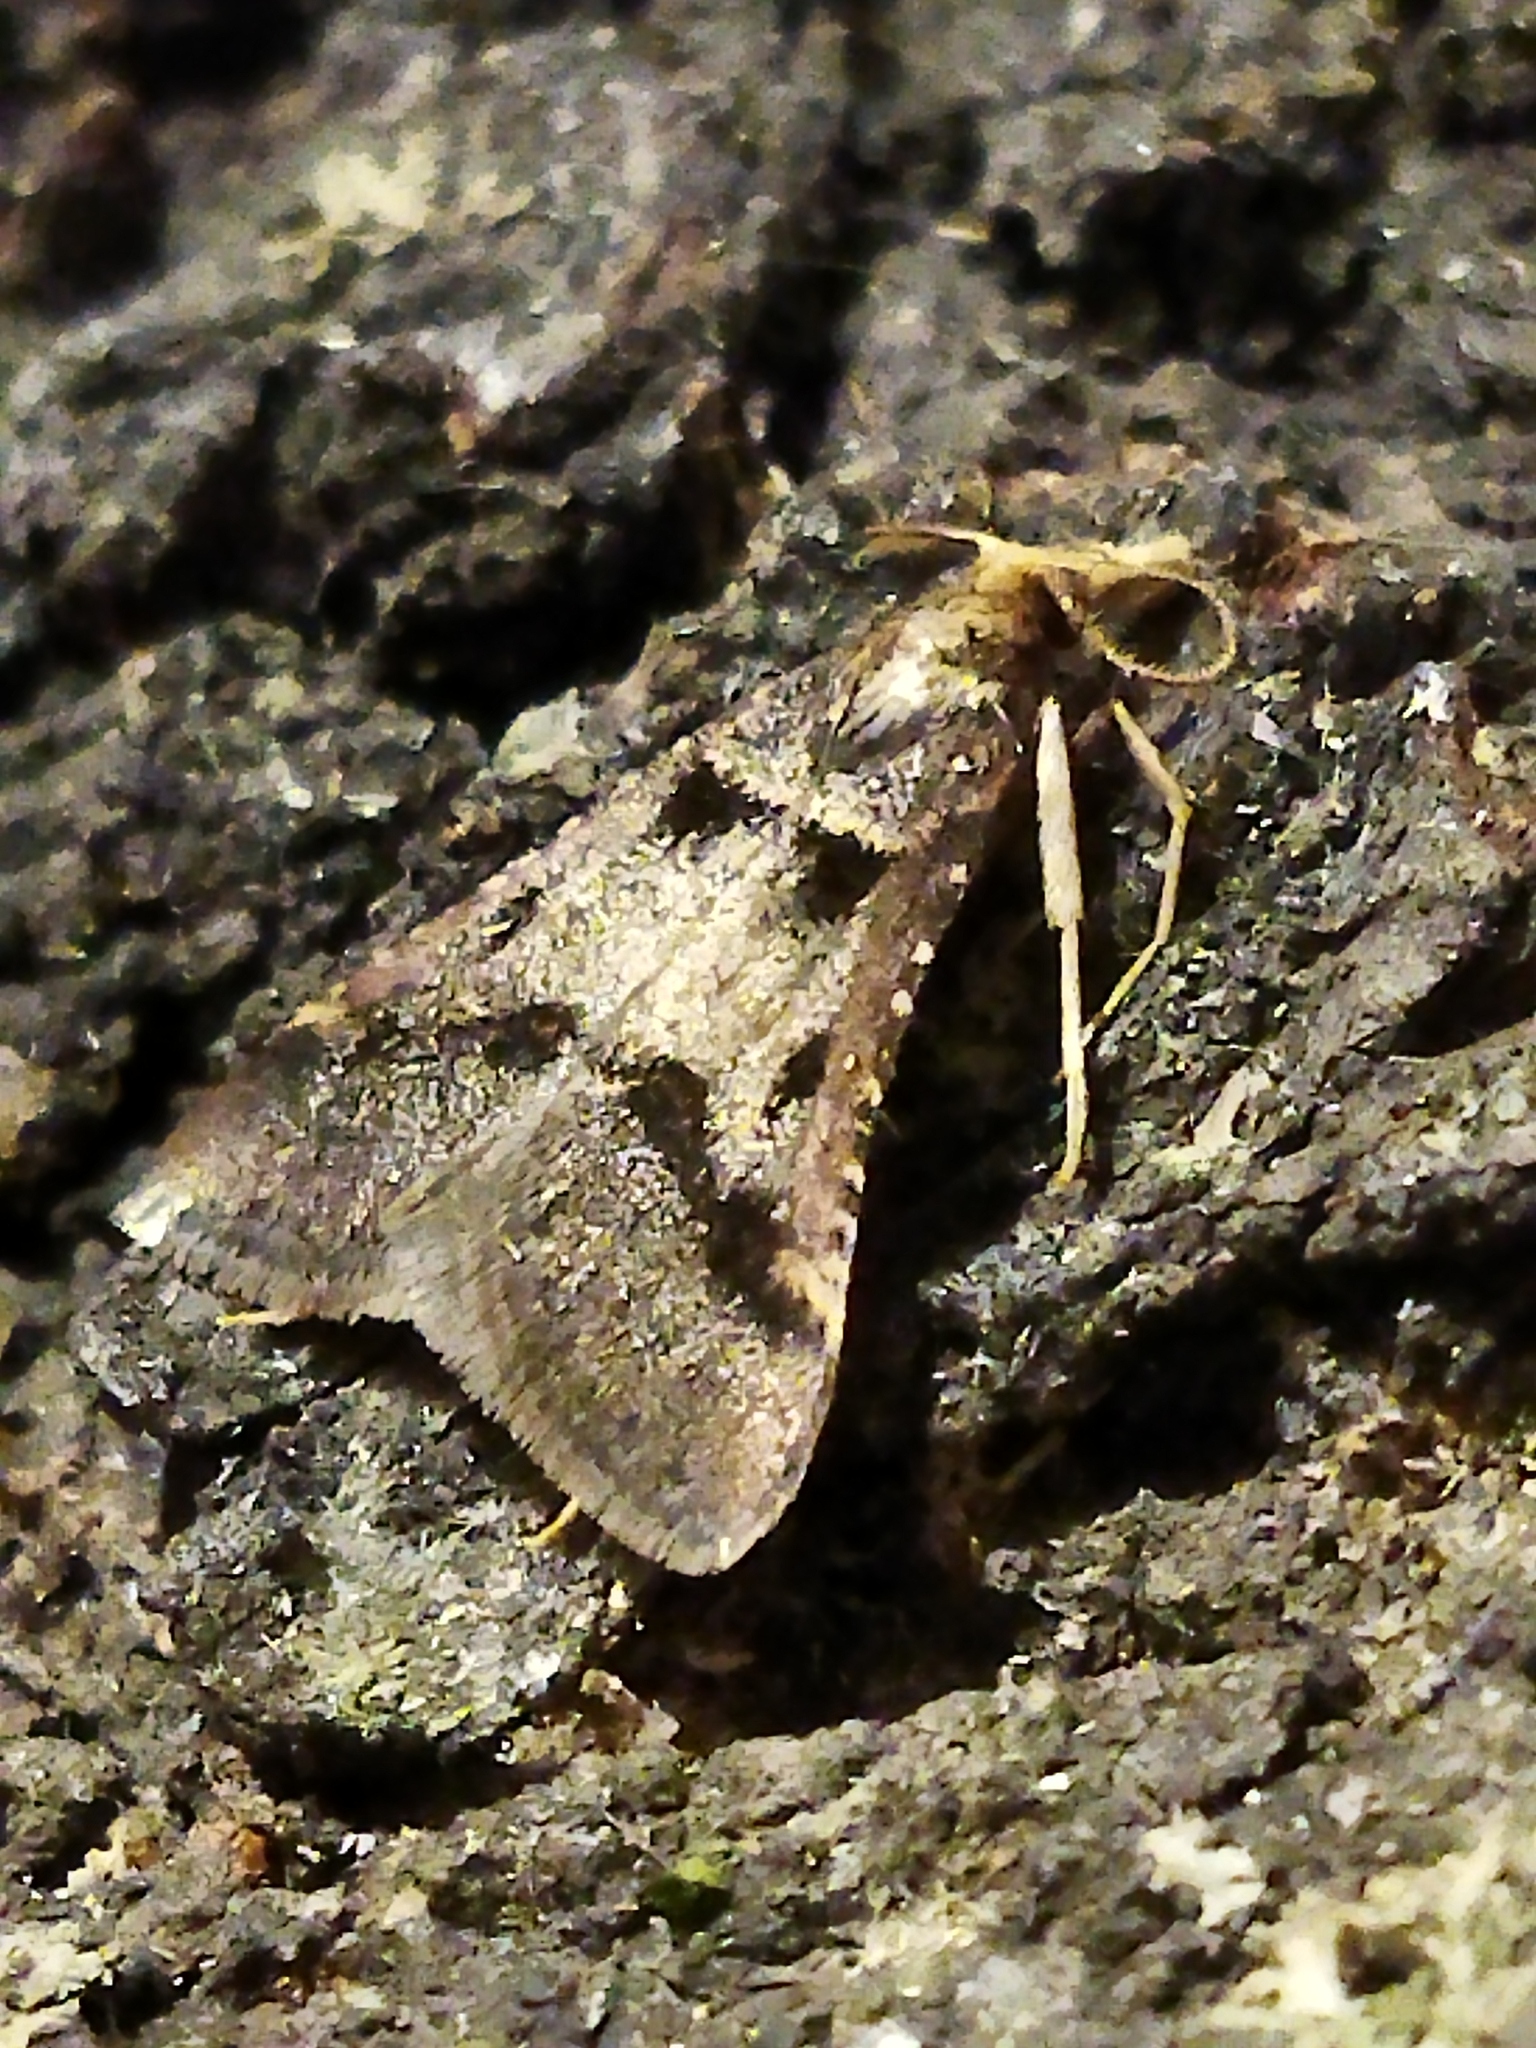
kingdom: Animalia
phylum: Arthropoda
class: Insecta
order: Lepidoptera
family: Pyralidae
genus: Stemmatophora
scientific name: Stemmatophora brunnealis
